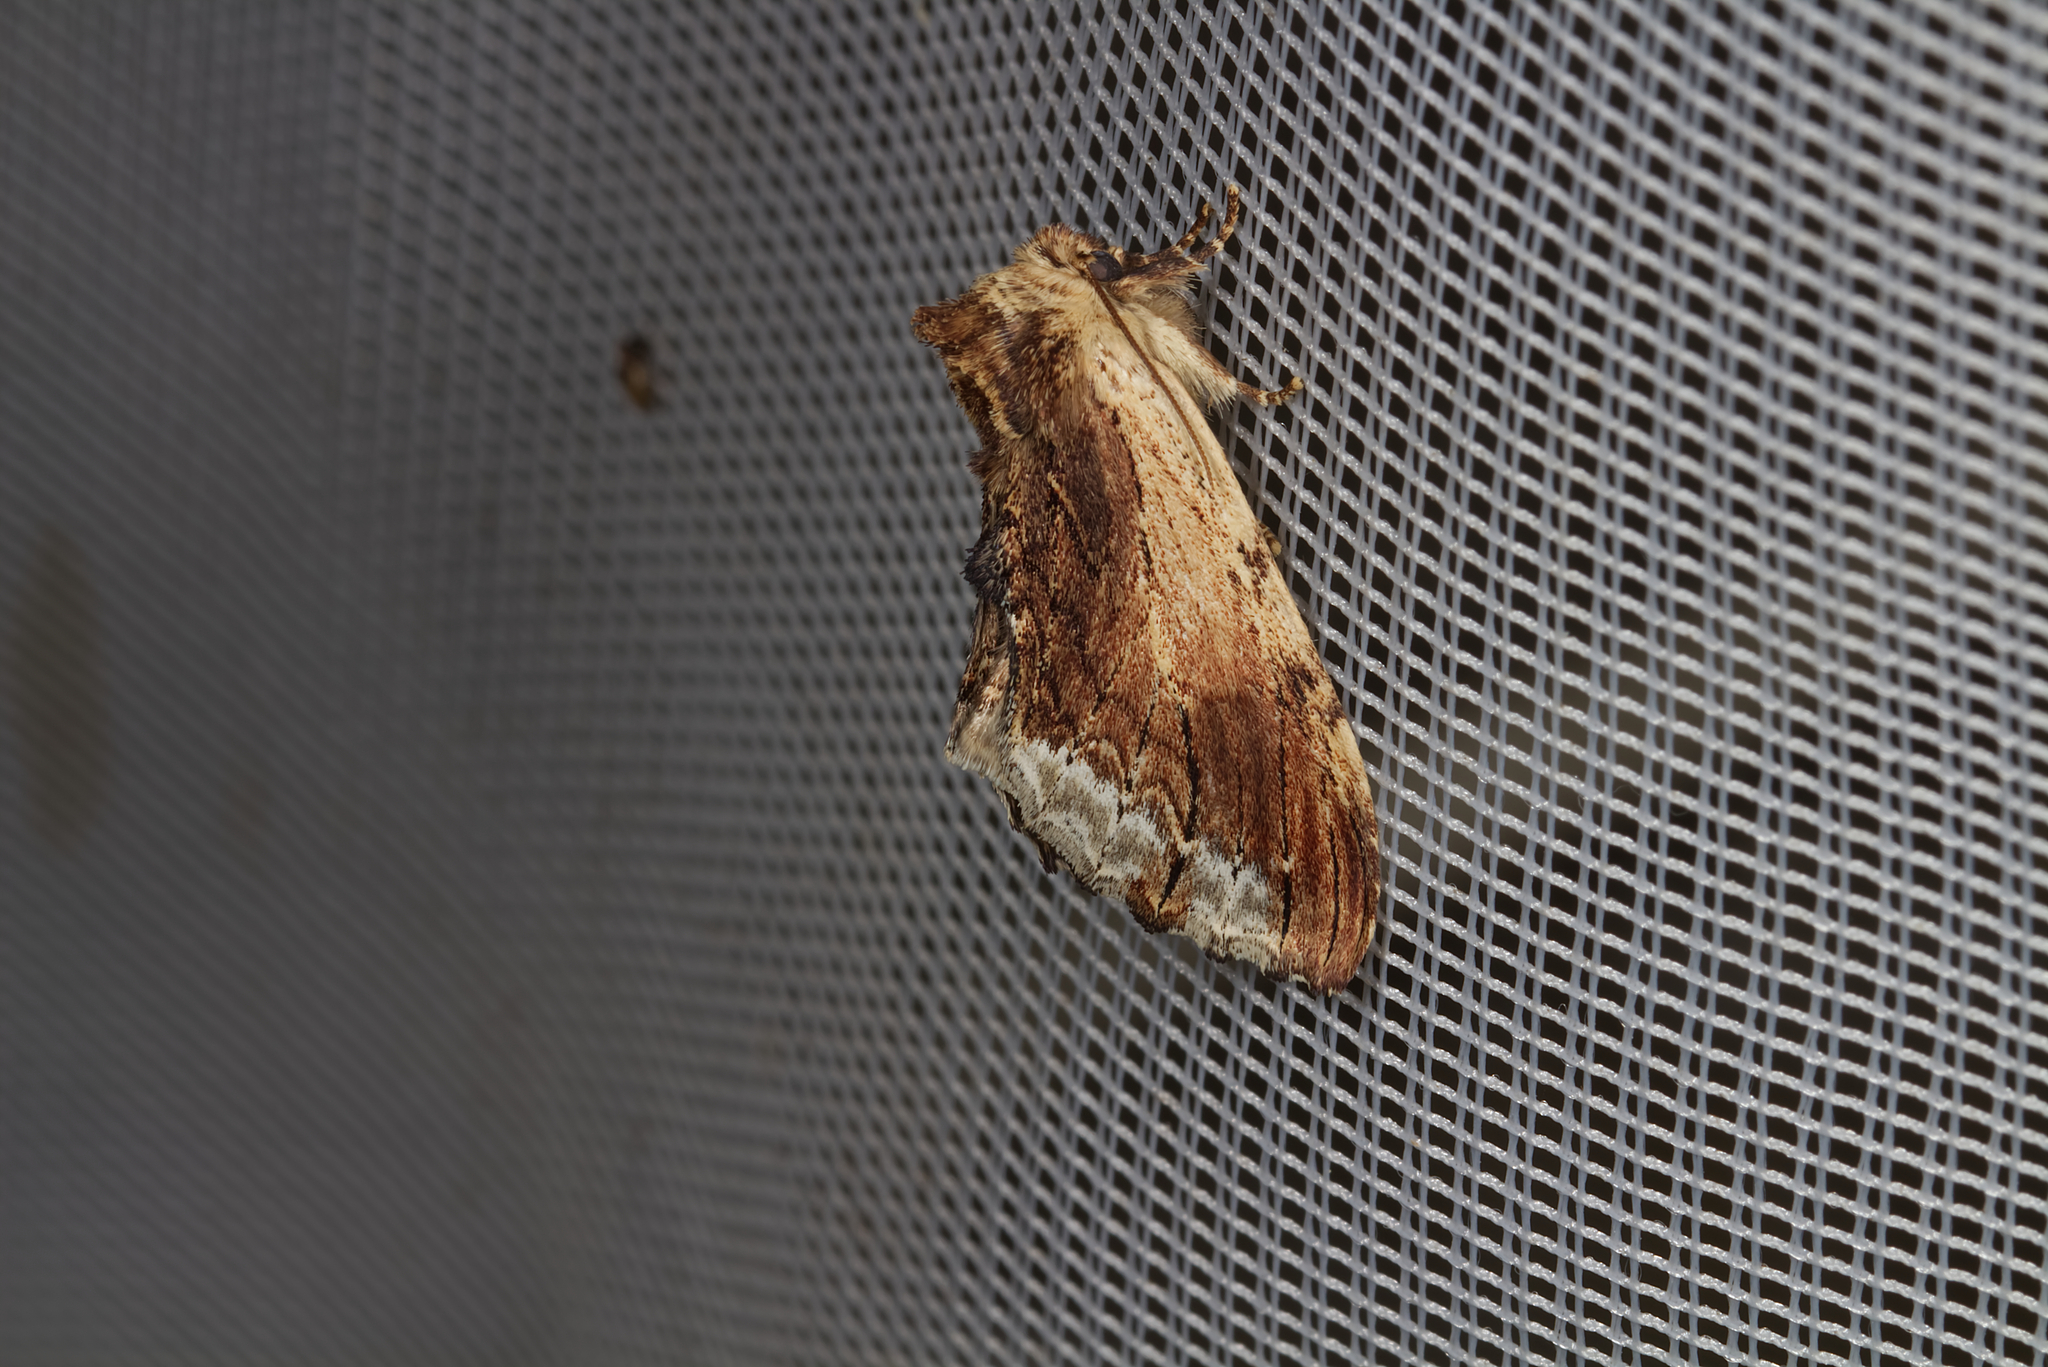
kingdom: Animalia
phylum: Arthropoda
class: Insecta
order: Lepidoptera
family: Notodontidae
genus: Ptilodon
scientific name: Ptilodon cucullina
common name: Maple prominent
